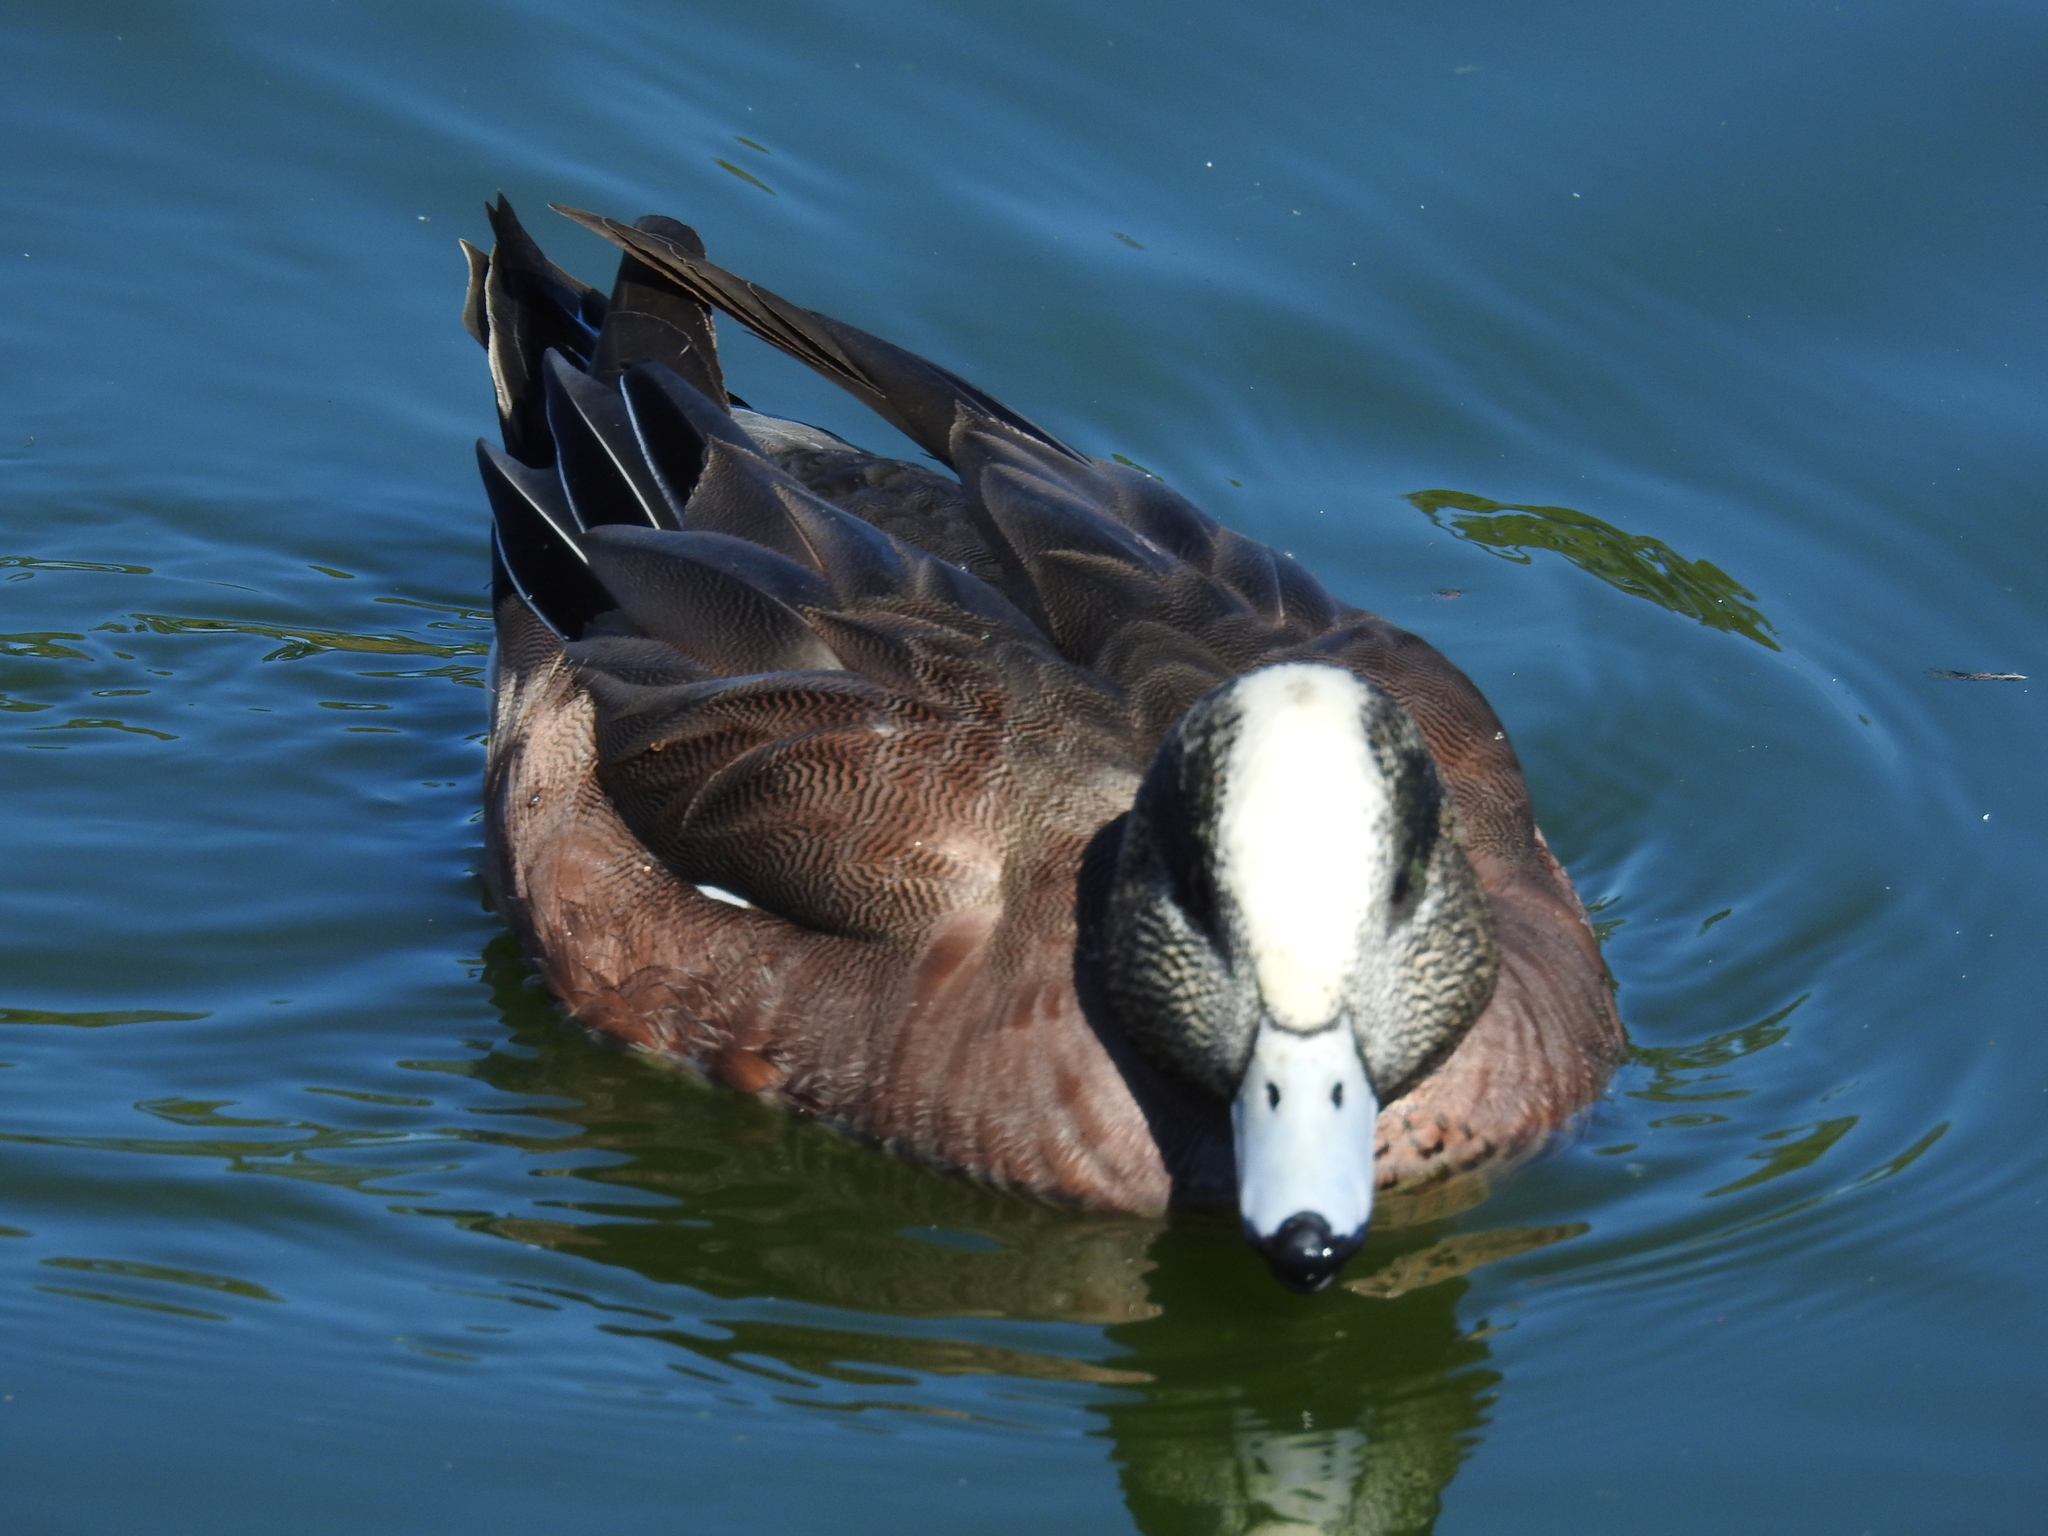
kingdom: Animalia
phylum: Chordata
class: Aves
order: Anseriformes
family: Anatidae
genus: Mareca
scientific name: Mareca americana
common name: American wigeon
